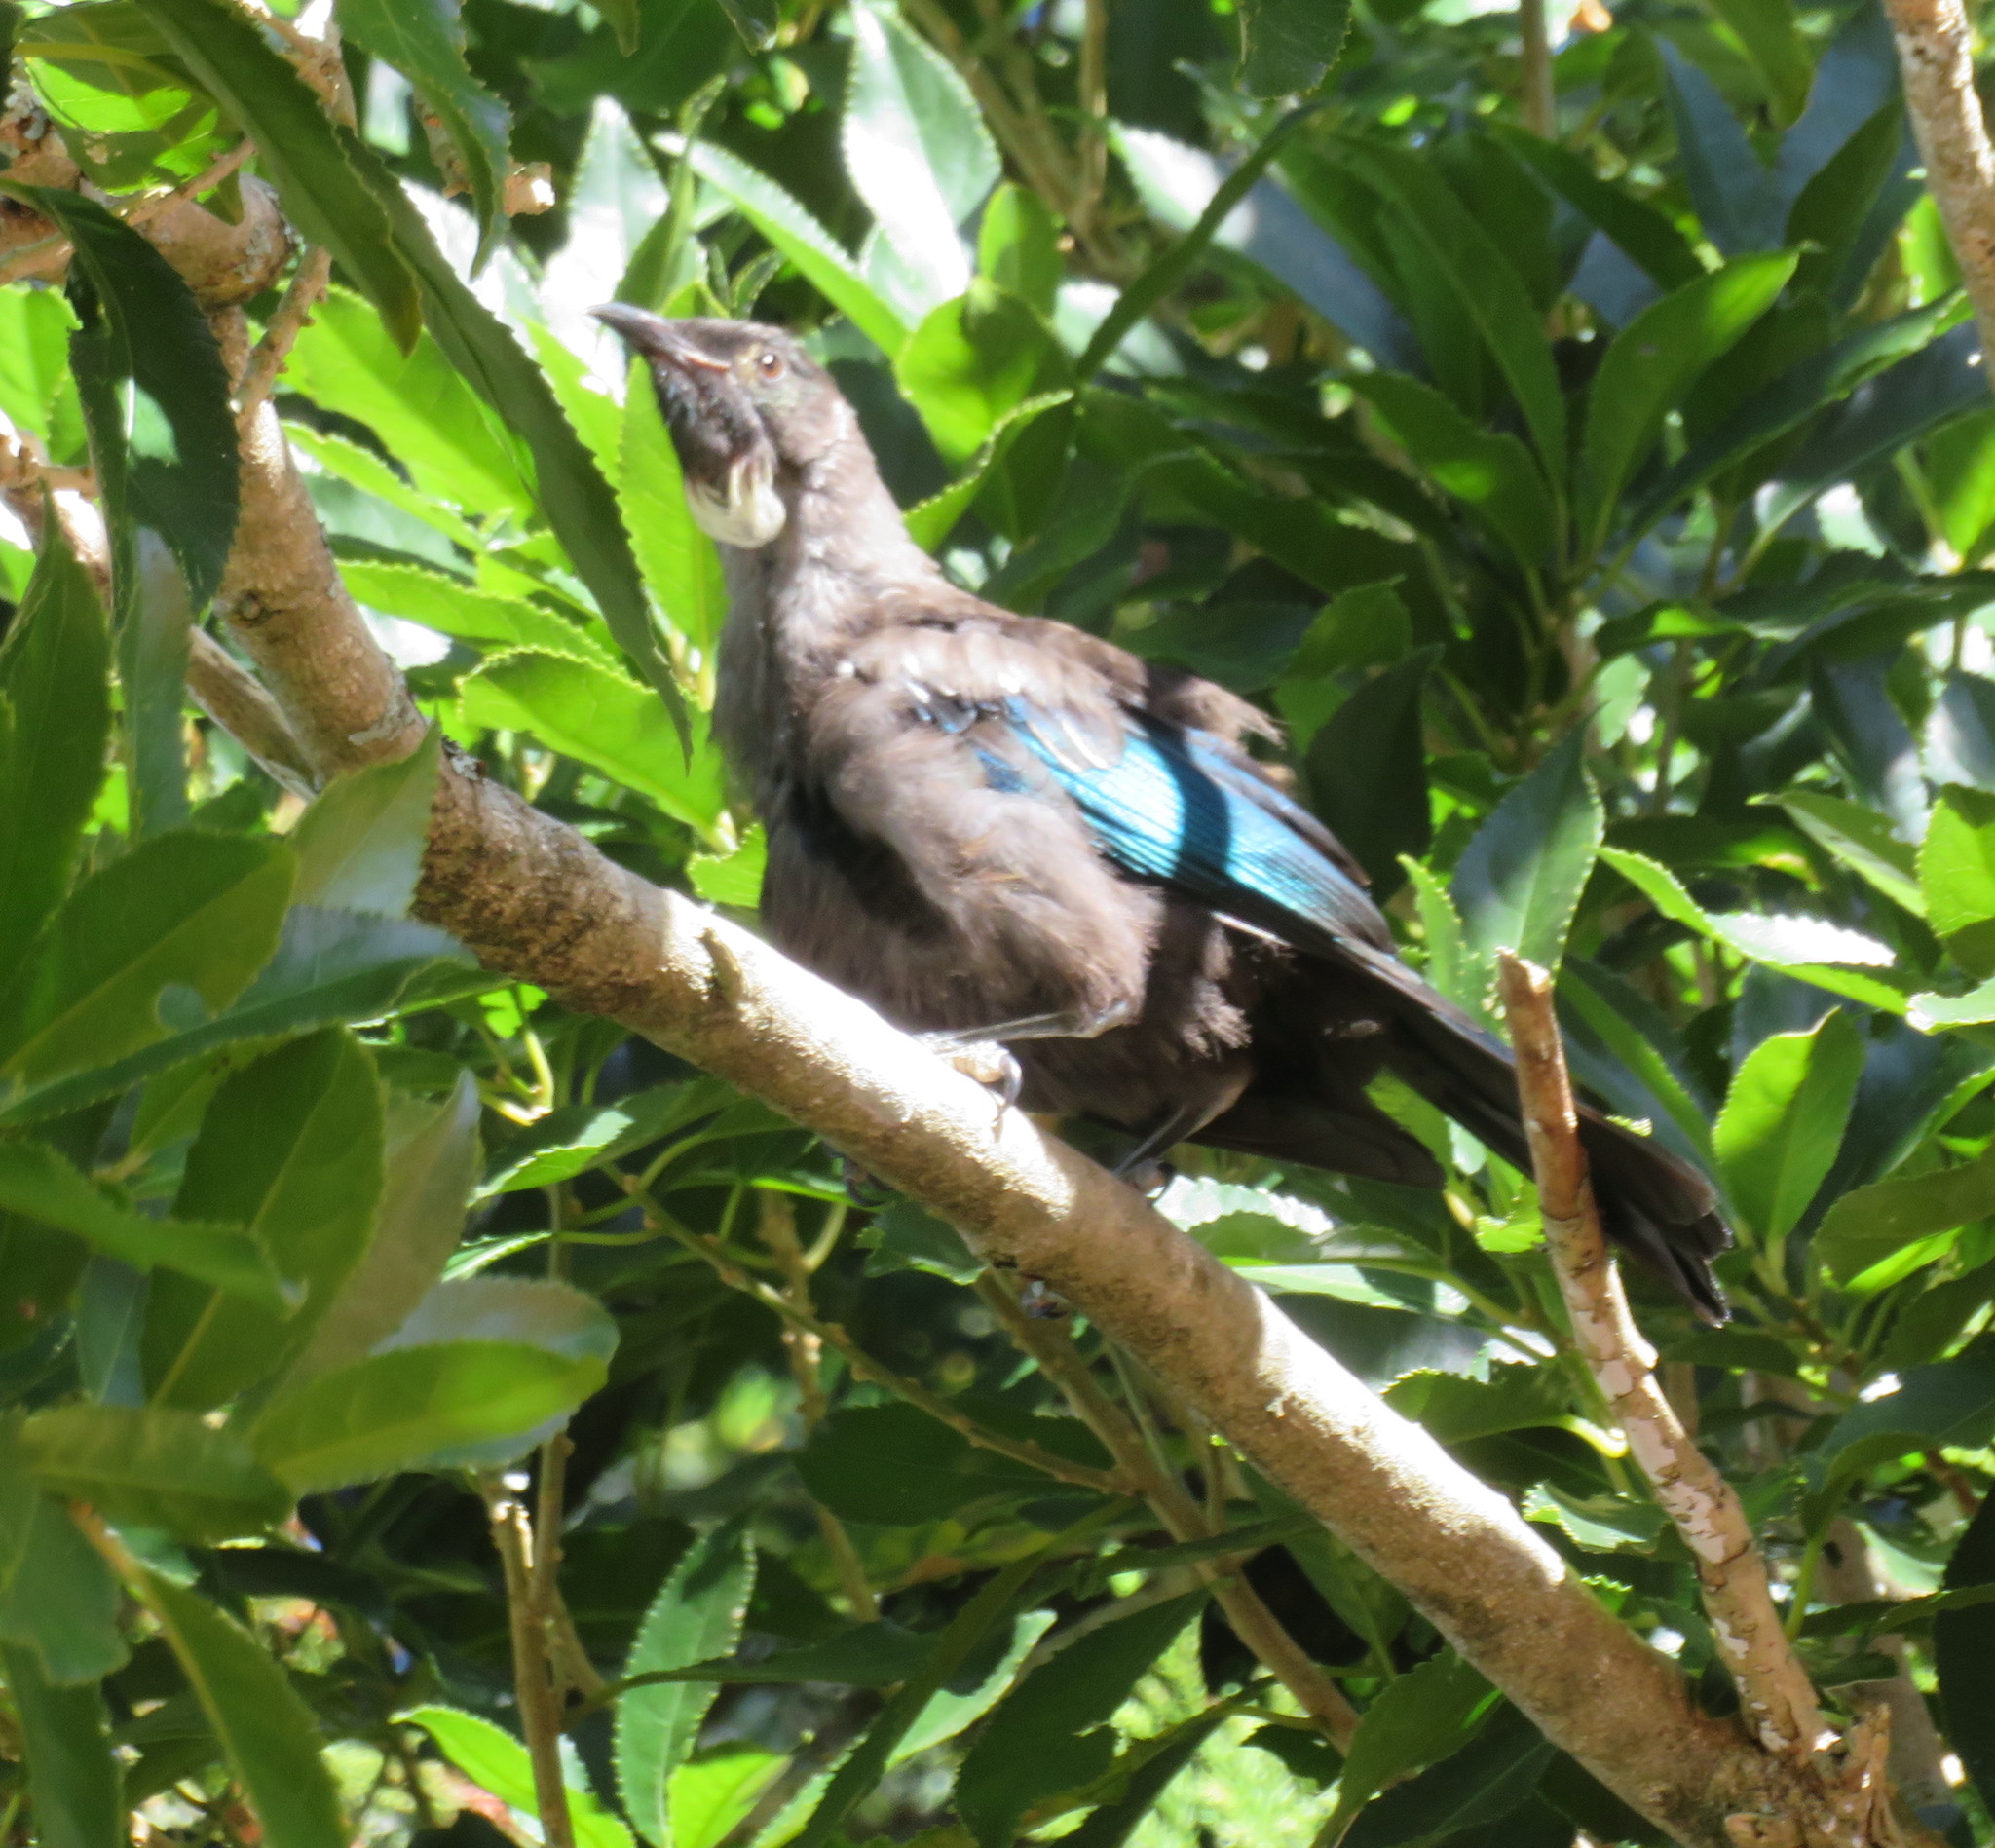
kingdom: Animalia
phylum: Chordata
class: Aves
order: Passeriformes
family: Meliphagidae
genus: Prosthemadera
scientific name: Prosthemadera novaeseelandiae
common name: Tui
